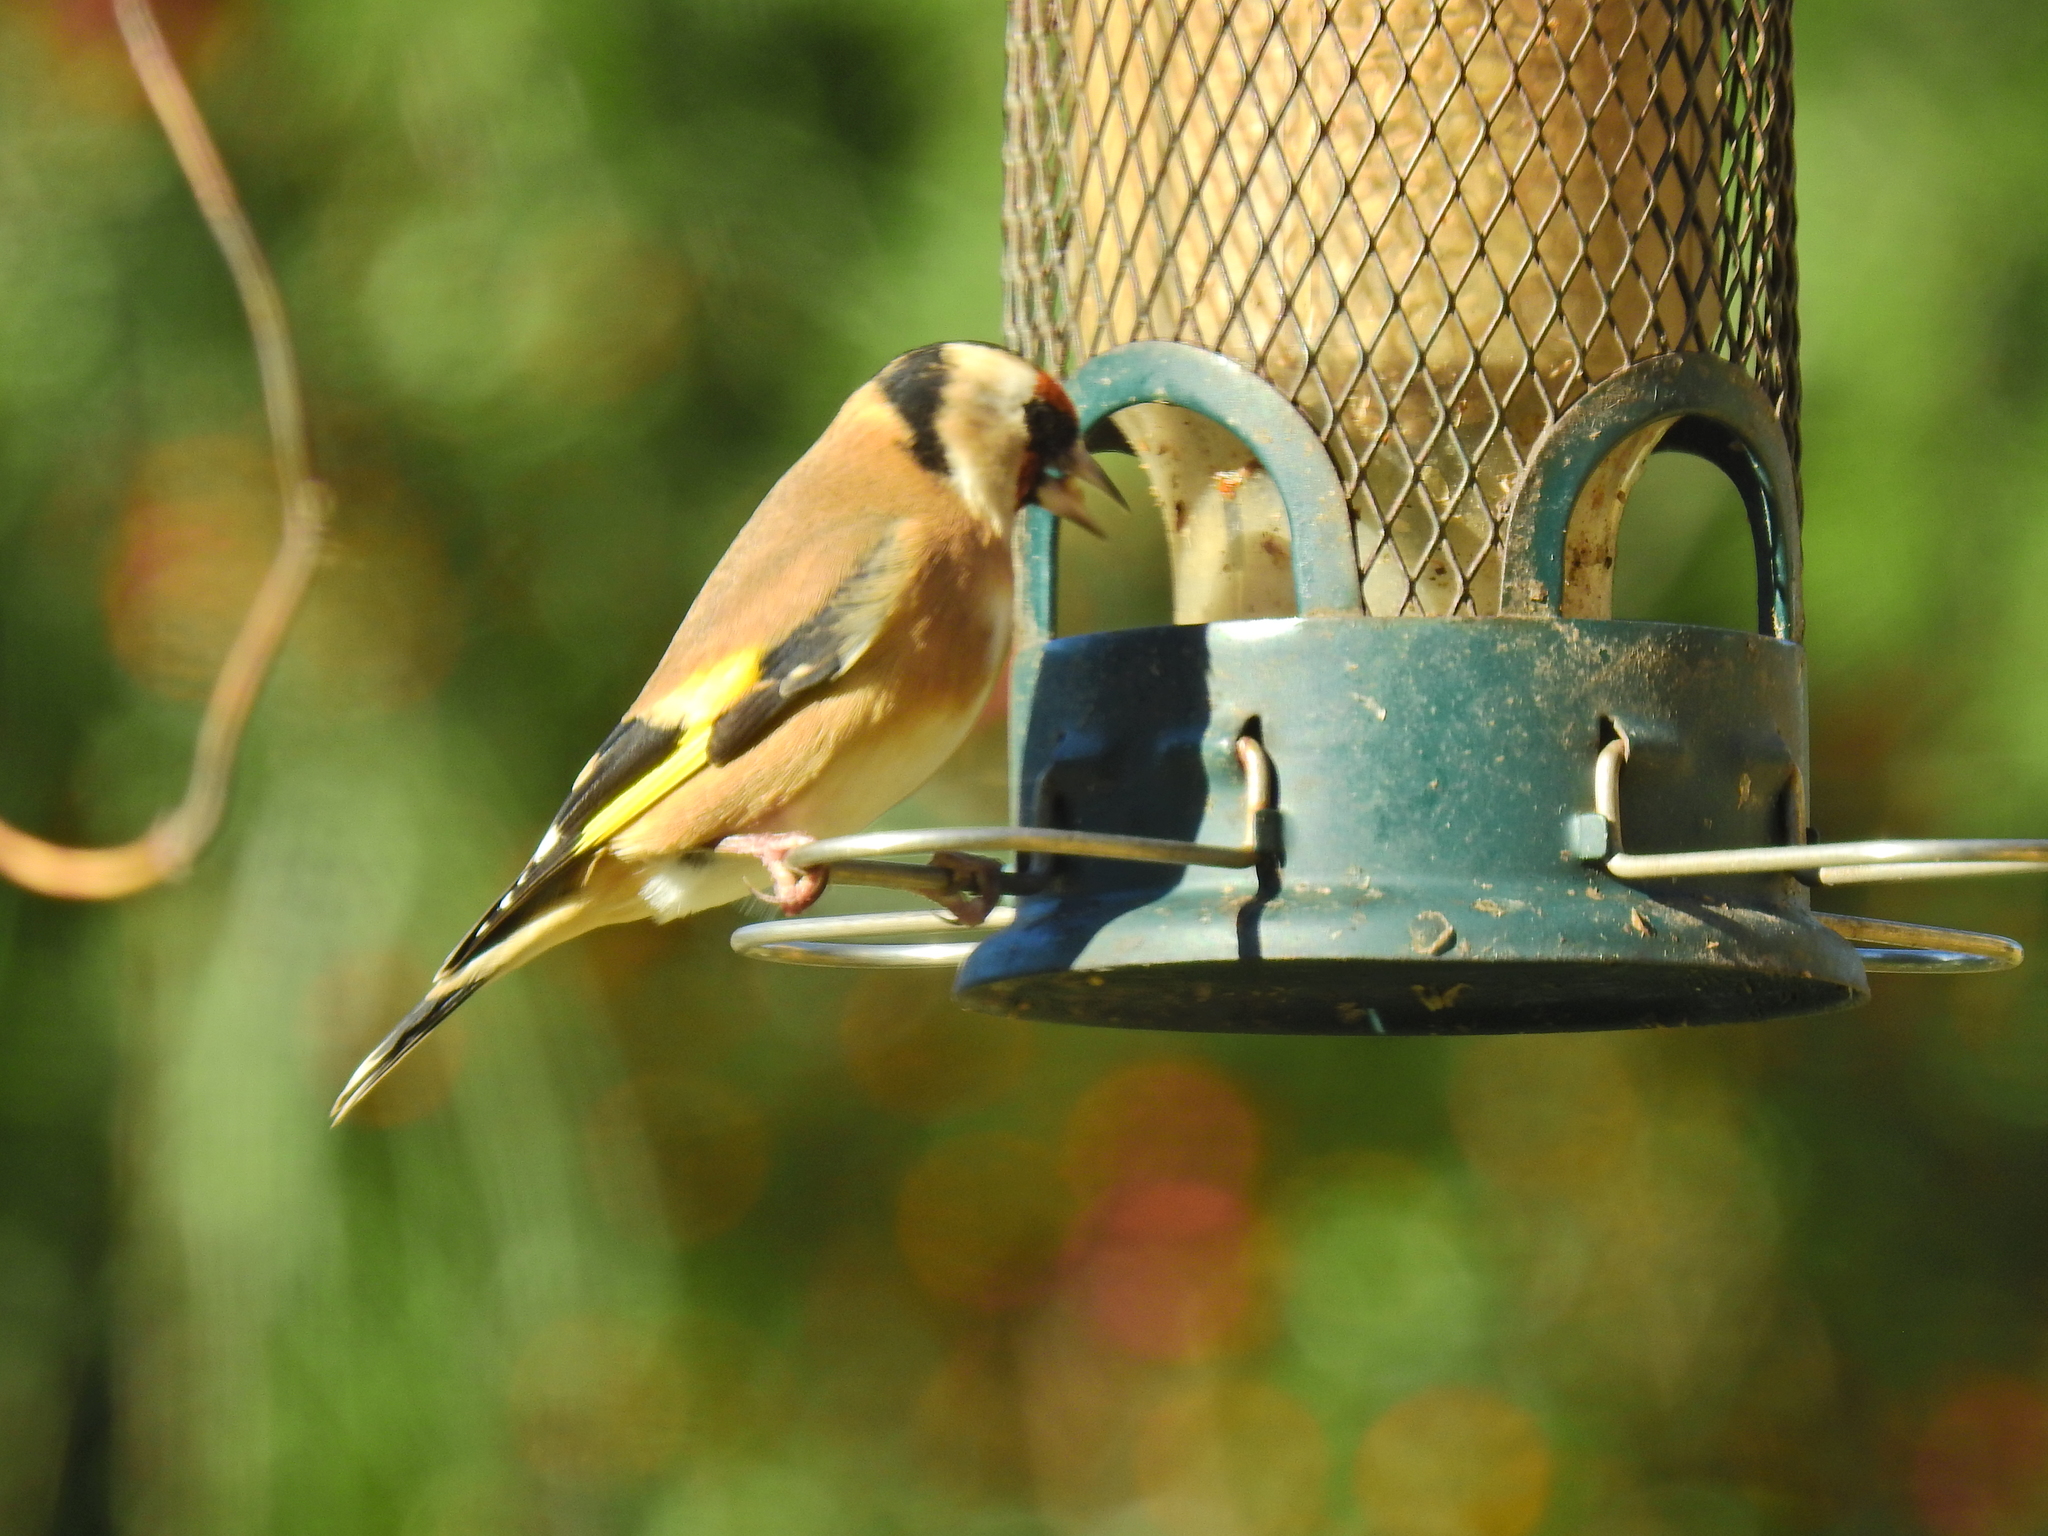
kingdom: Animalia
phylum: Chordata
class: Aves
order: Passeriformes
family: Fringillidae
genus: Carduelis
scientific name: Carduelis carduelis
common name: European goldfinch
